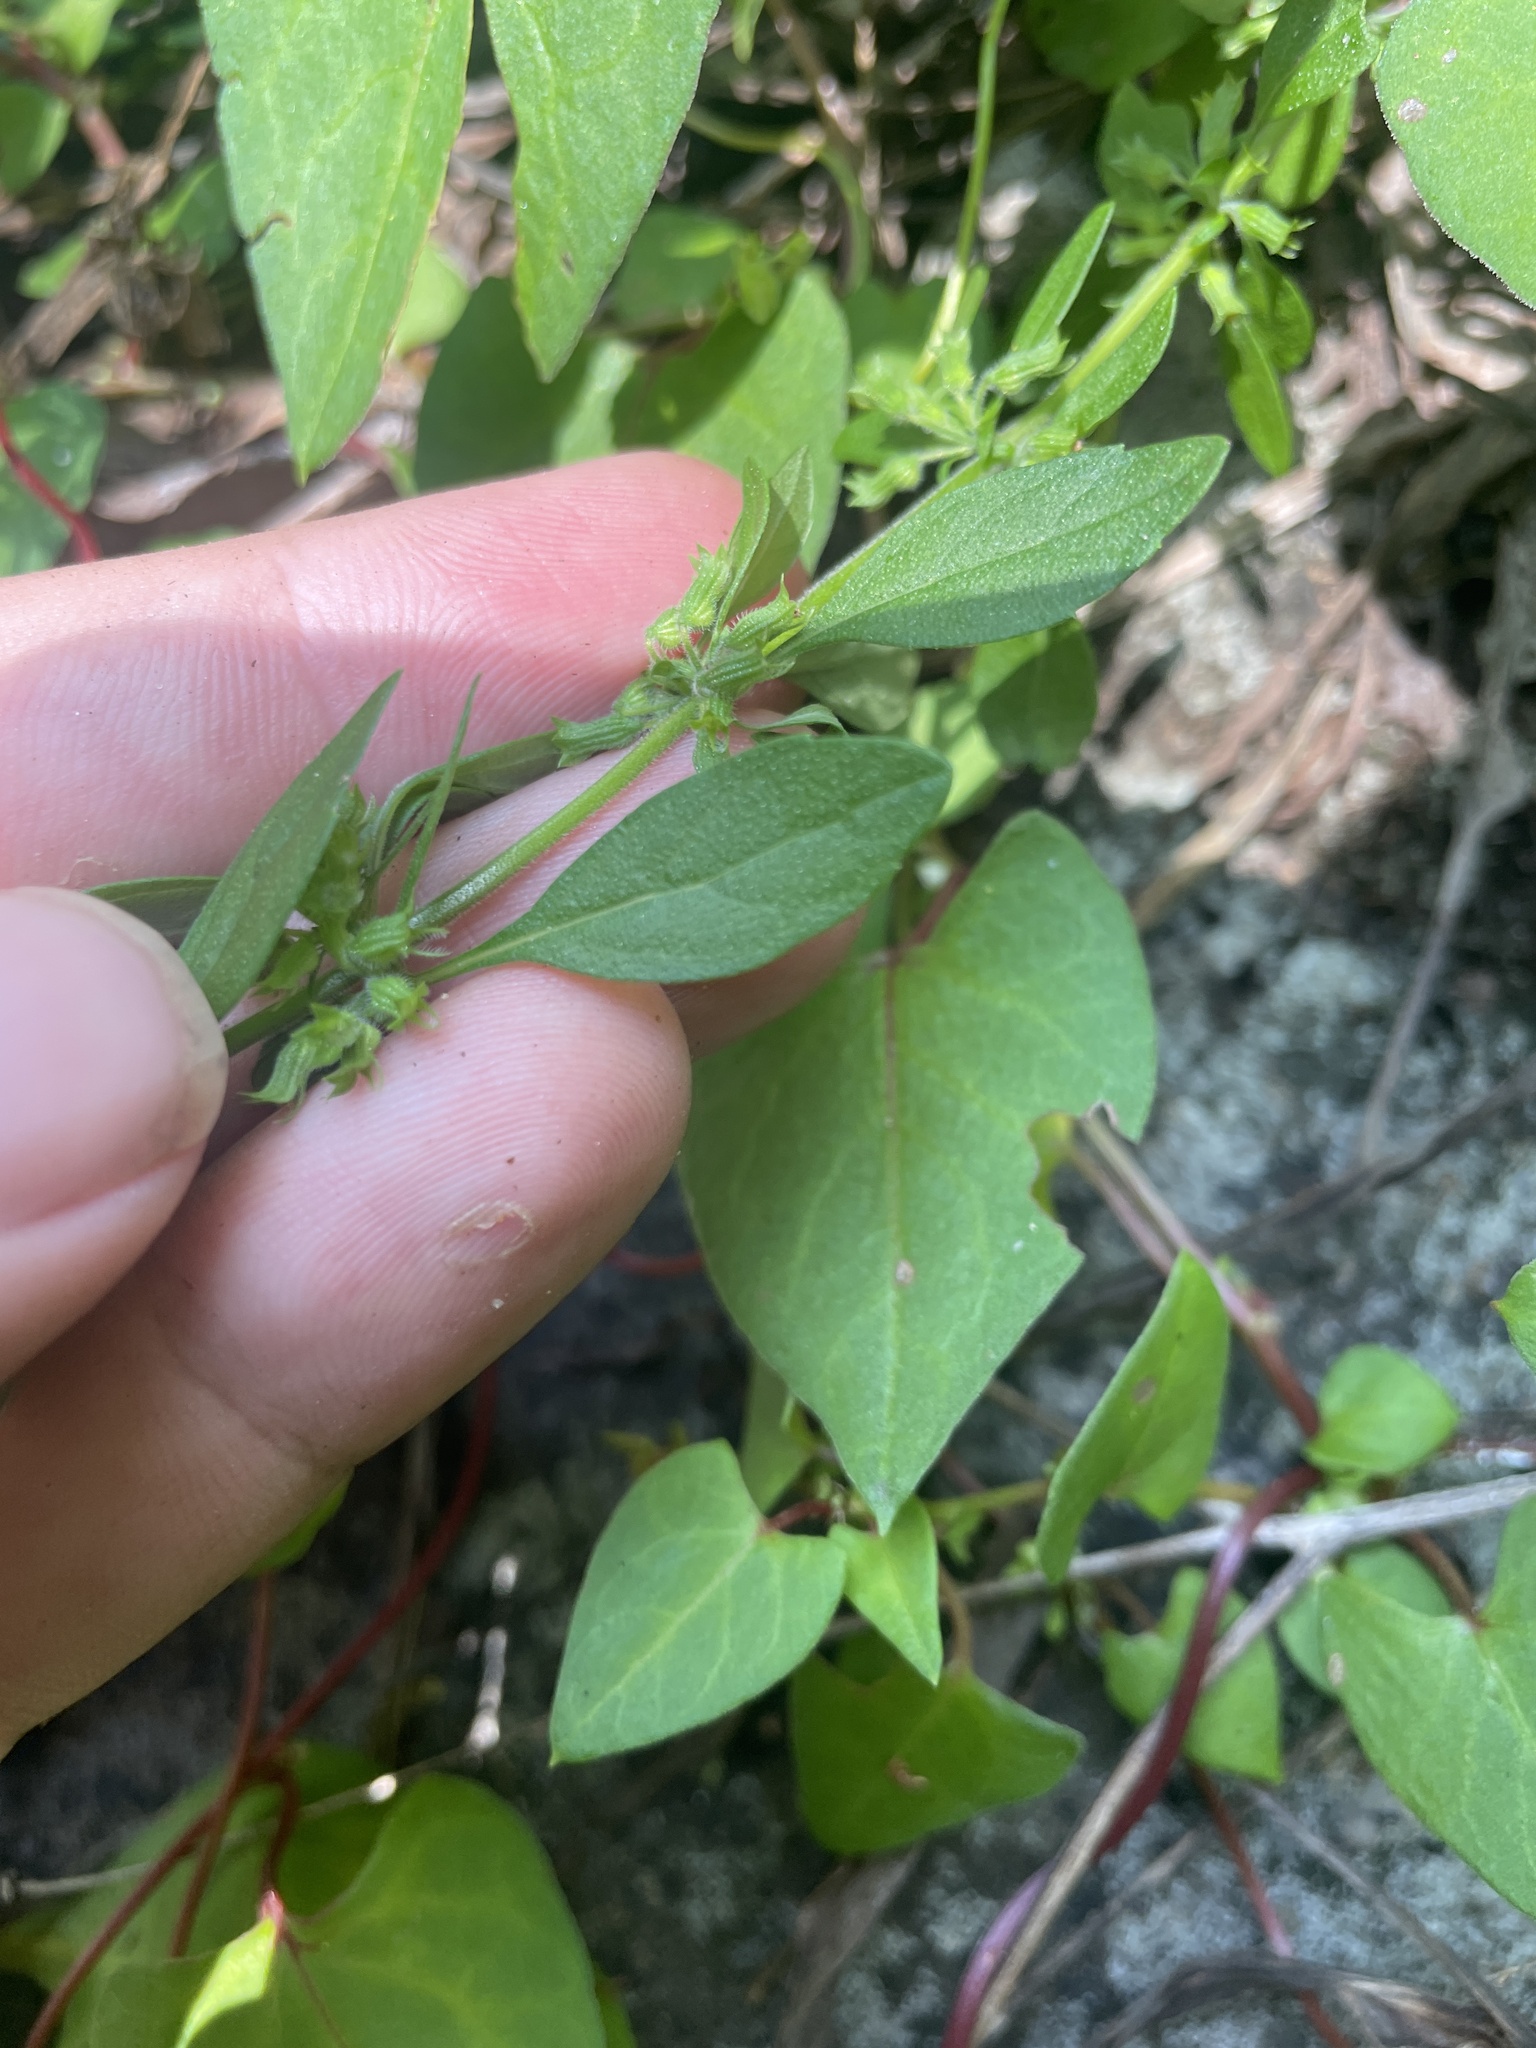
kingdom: Plantae
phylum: Tracheophyta
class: Magnoliopsida
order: Lamiales
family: Lamiaceae
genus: Hedeoma
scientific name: Hedeoma pulegioides
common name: American false pennyroyal
